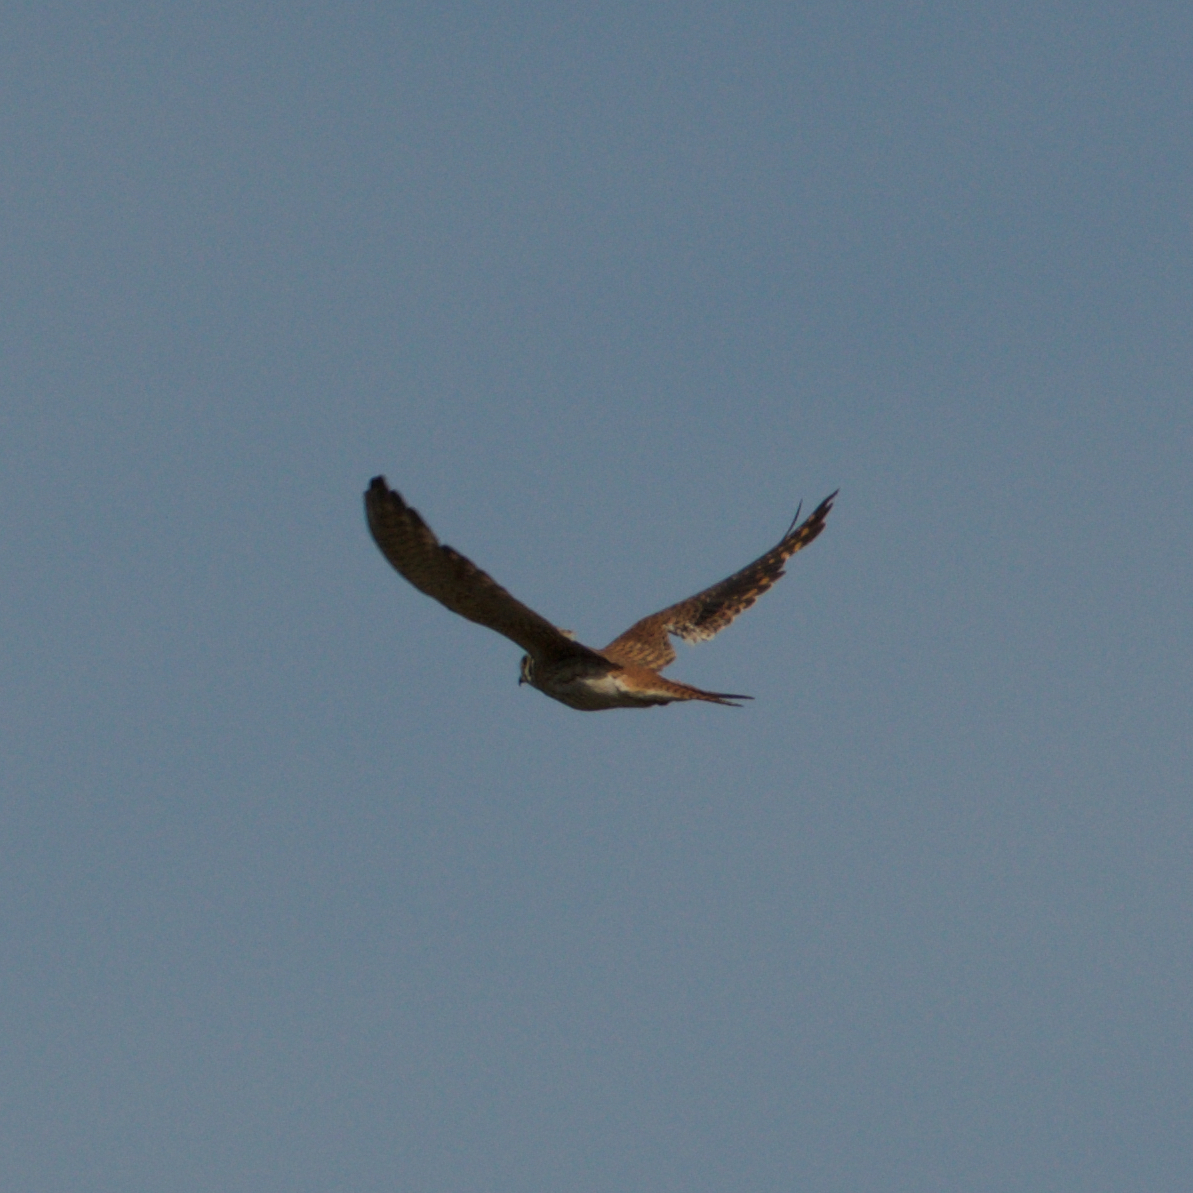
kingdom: Animalia
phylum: Chordata
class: Aves
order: Falconiformes
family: Falconidae
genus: Falco
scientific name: Falco sparverius
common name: American kestrel
